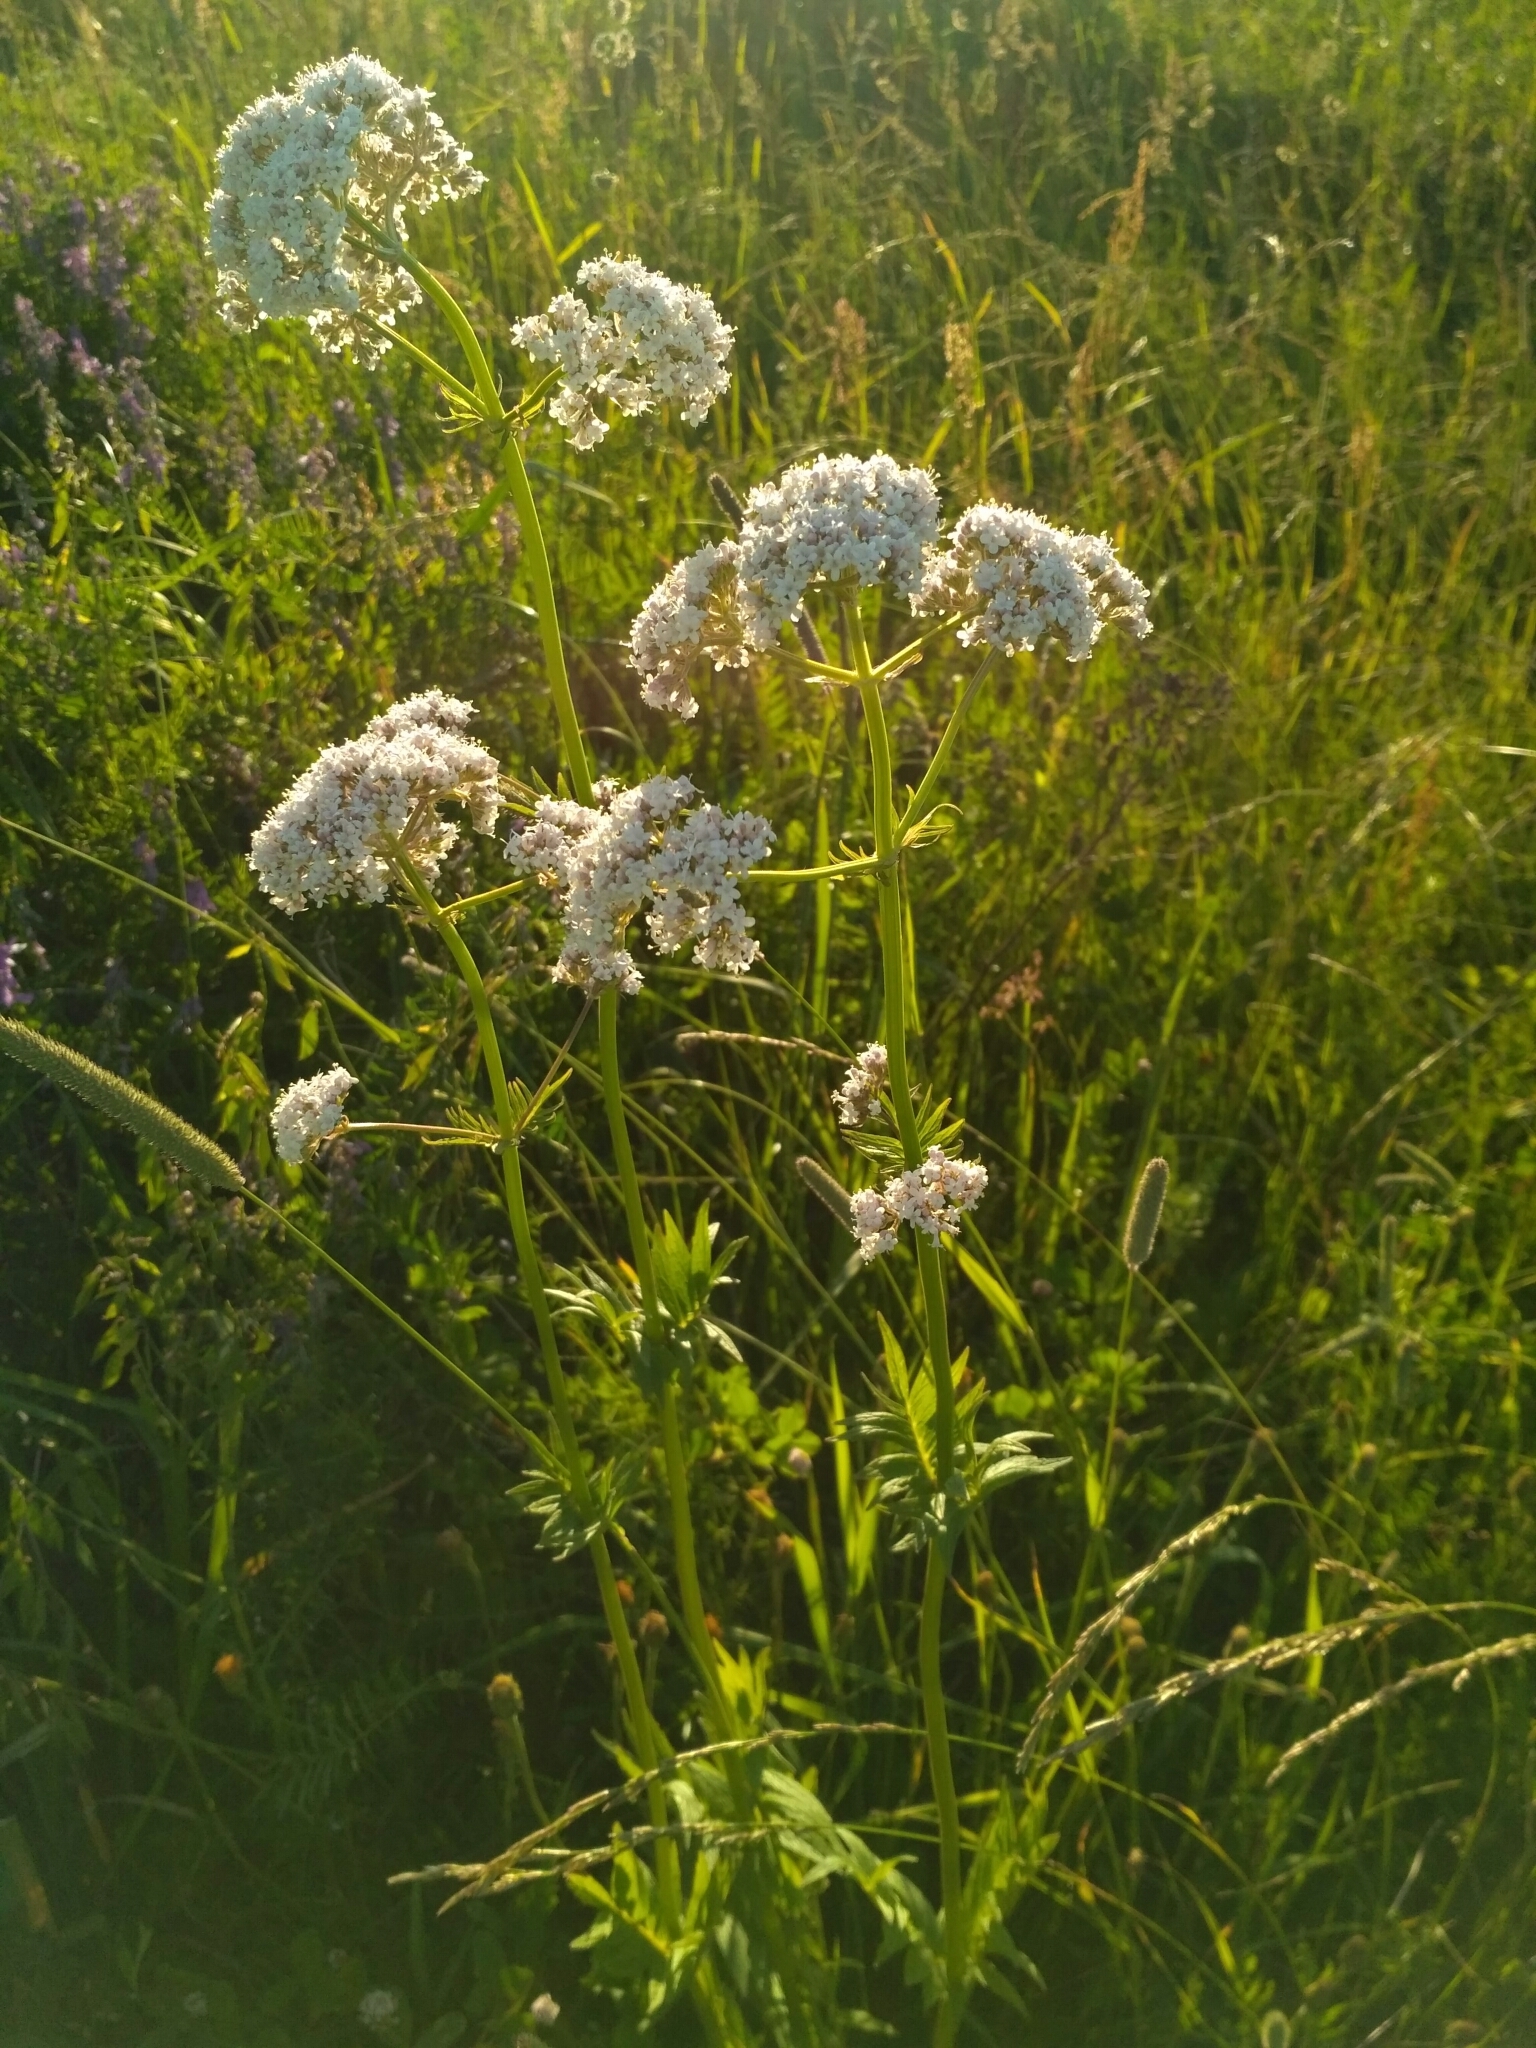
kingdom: Plantae
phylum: Tracheophyta
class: Magnoliopsida
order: Dipsacales
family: Caprifoliaceae
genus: Valeriana
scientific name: Valeriana officinalis
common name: Common valerian
